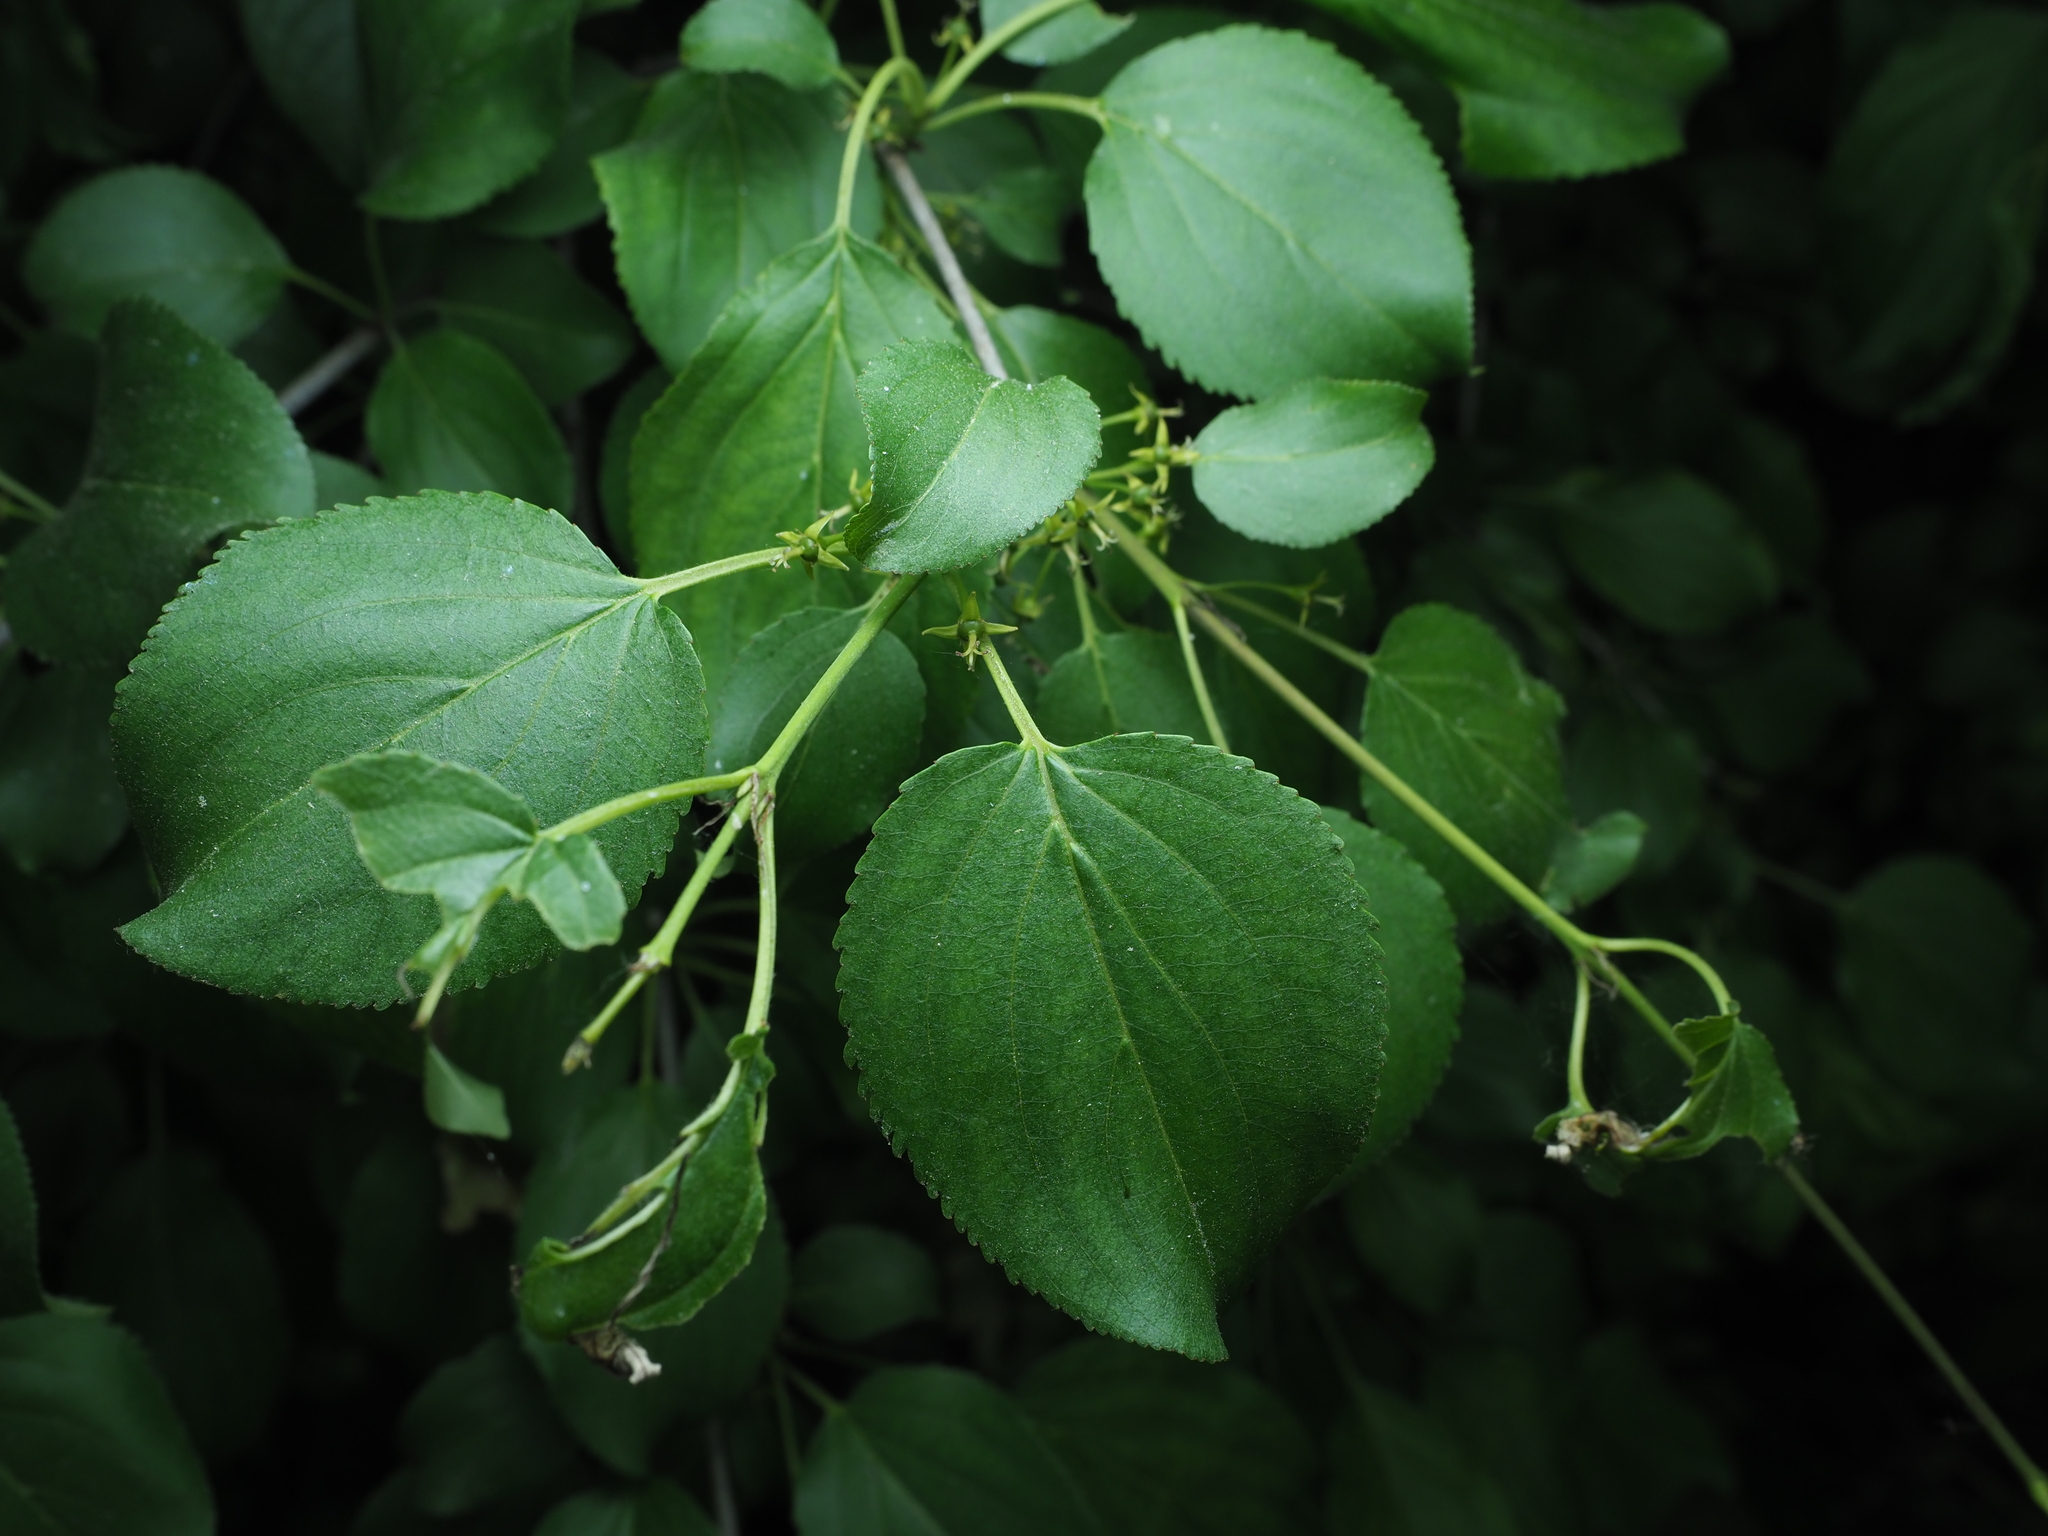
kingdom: Plantae
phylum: Tracheophyta
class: Magnoliopsida
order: Rosales
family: Rhamnaceae
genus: Rhamnus
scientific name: Rhamnus cathartica
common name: Common buckthorn
